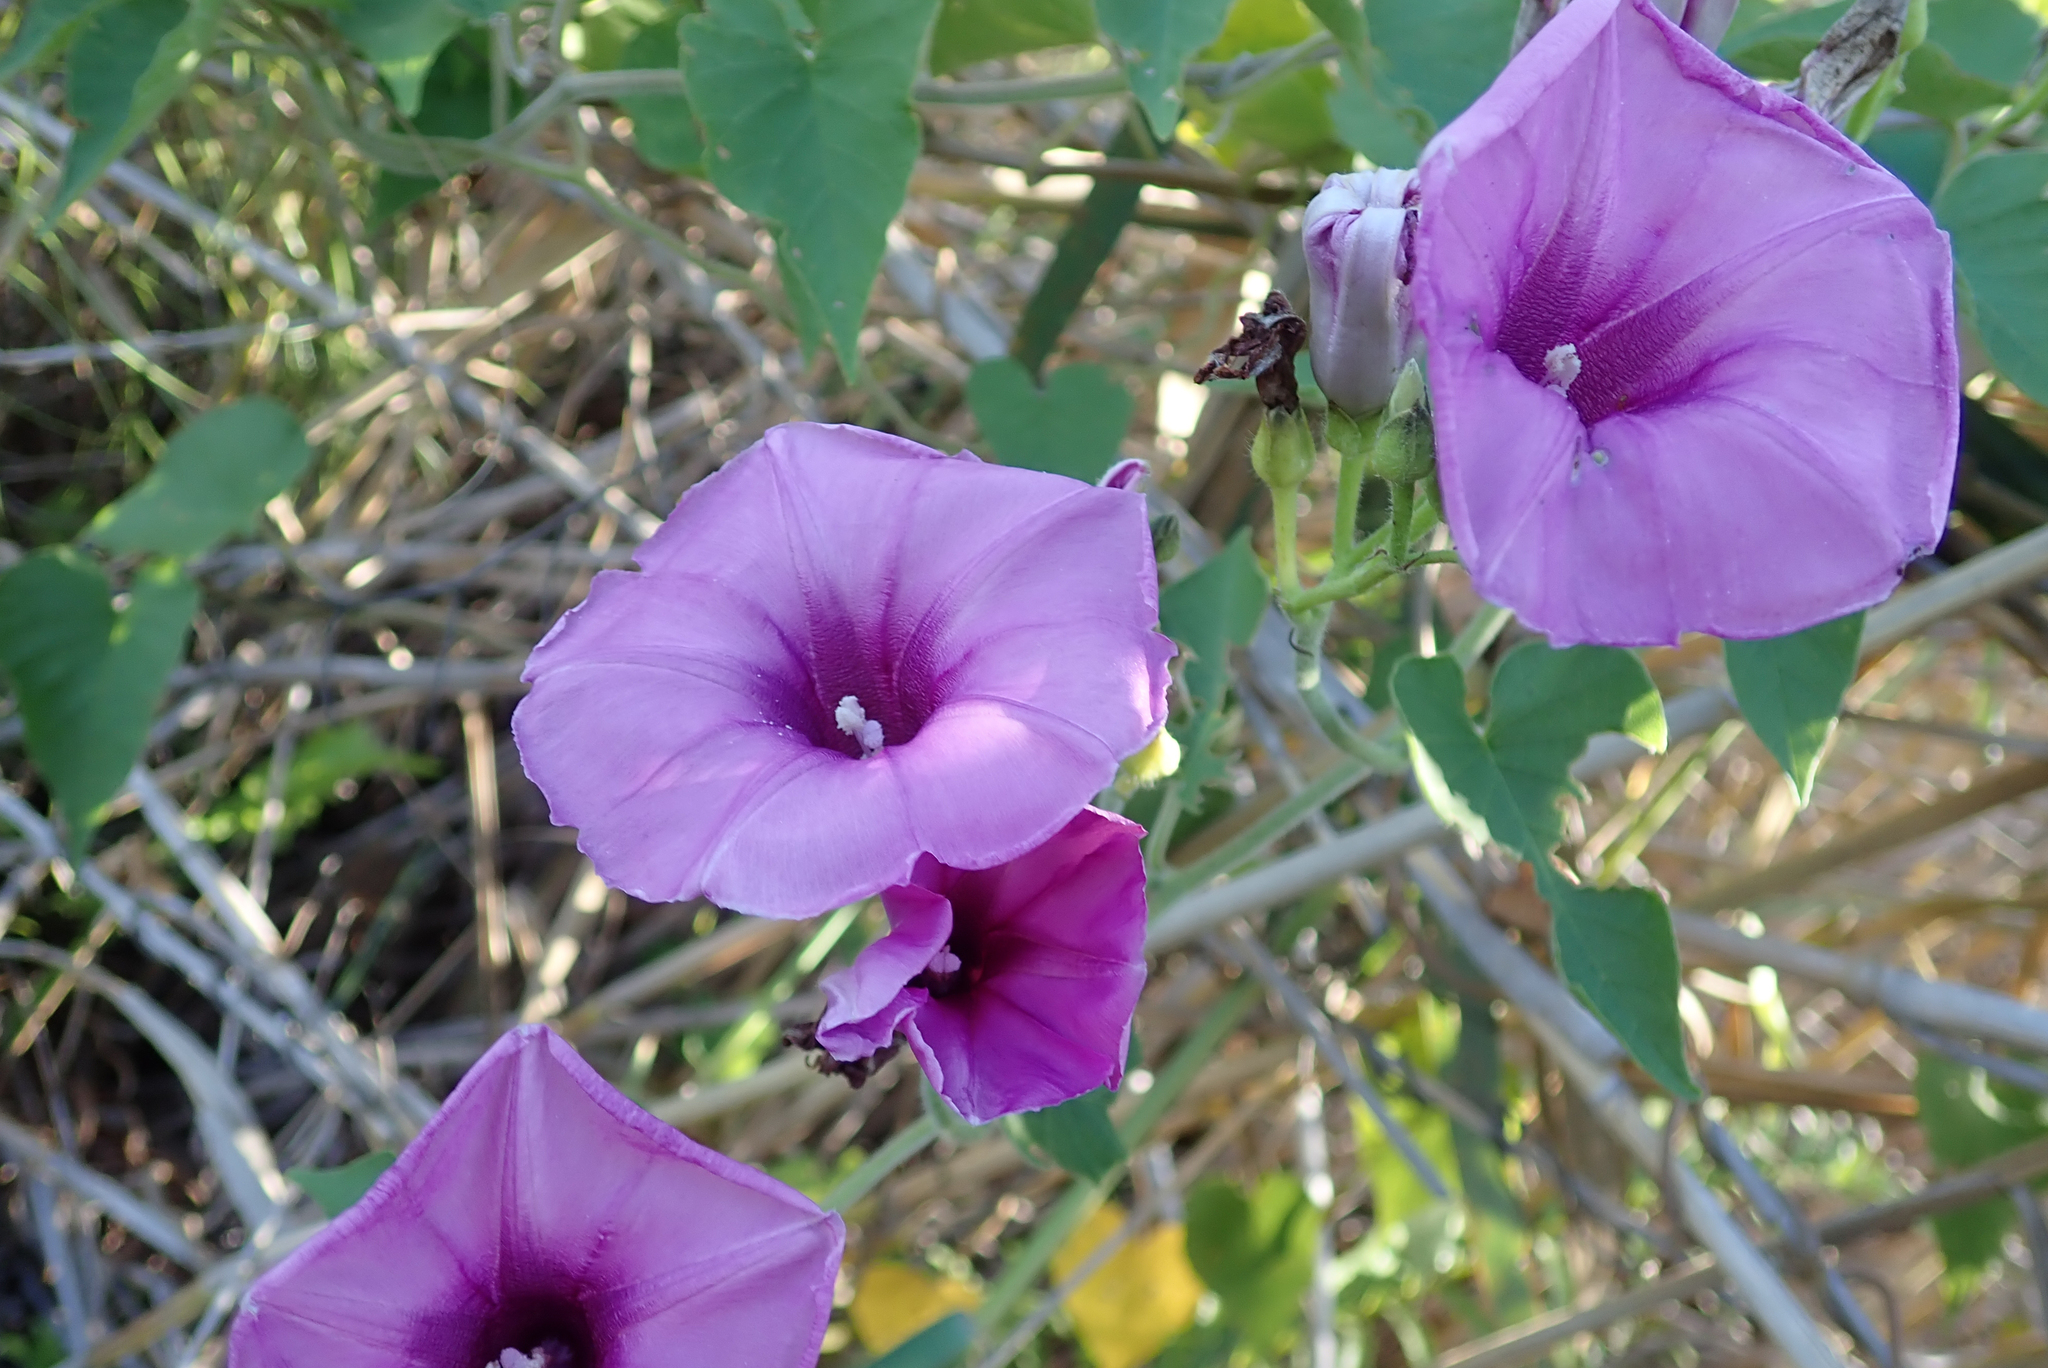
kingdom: Plantae
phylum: Tracheophyta
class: Magnoliopsida
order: Solanales
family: Convolvulaceae
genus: Ipomoea
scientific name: Ipomoea rubens
